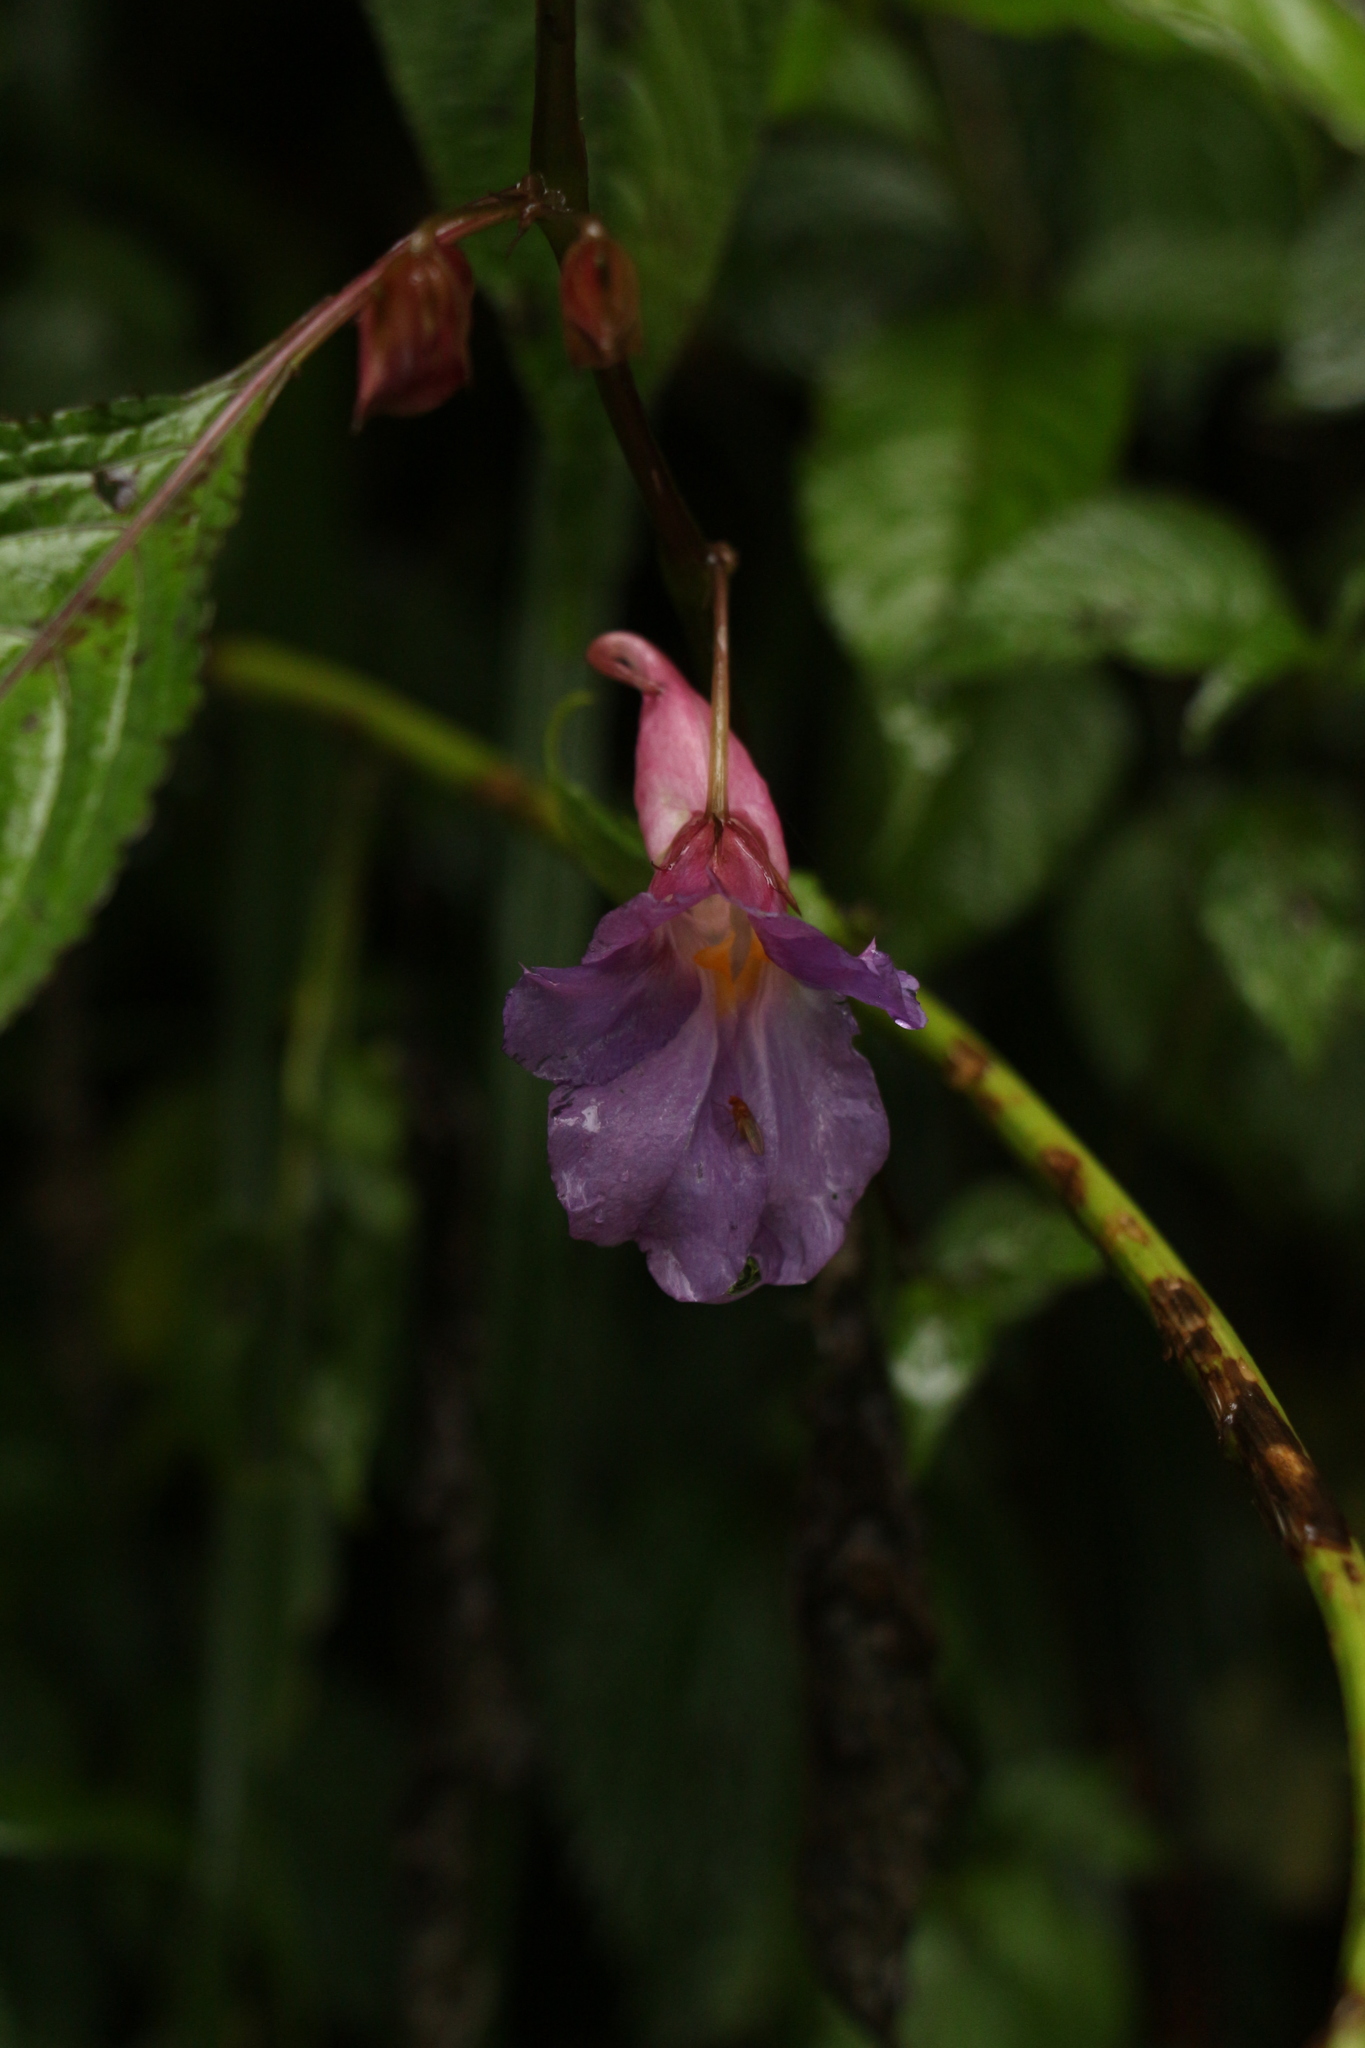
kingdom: Plantae
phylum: Tracheophyta
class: Magnoliopsida
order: Ericales
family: Balsaminaceae
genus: Impatiens
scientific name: Impatiens arguta
